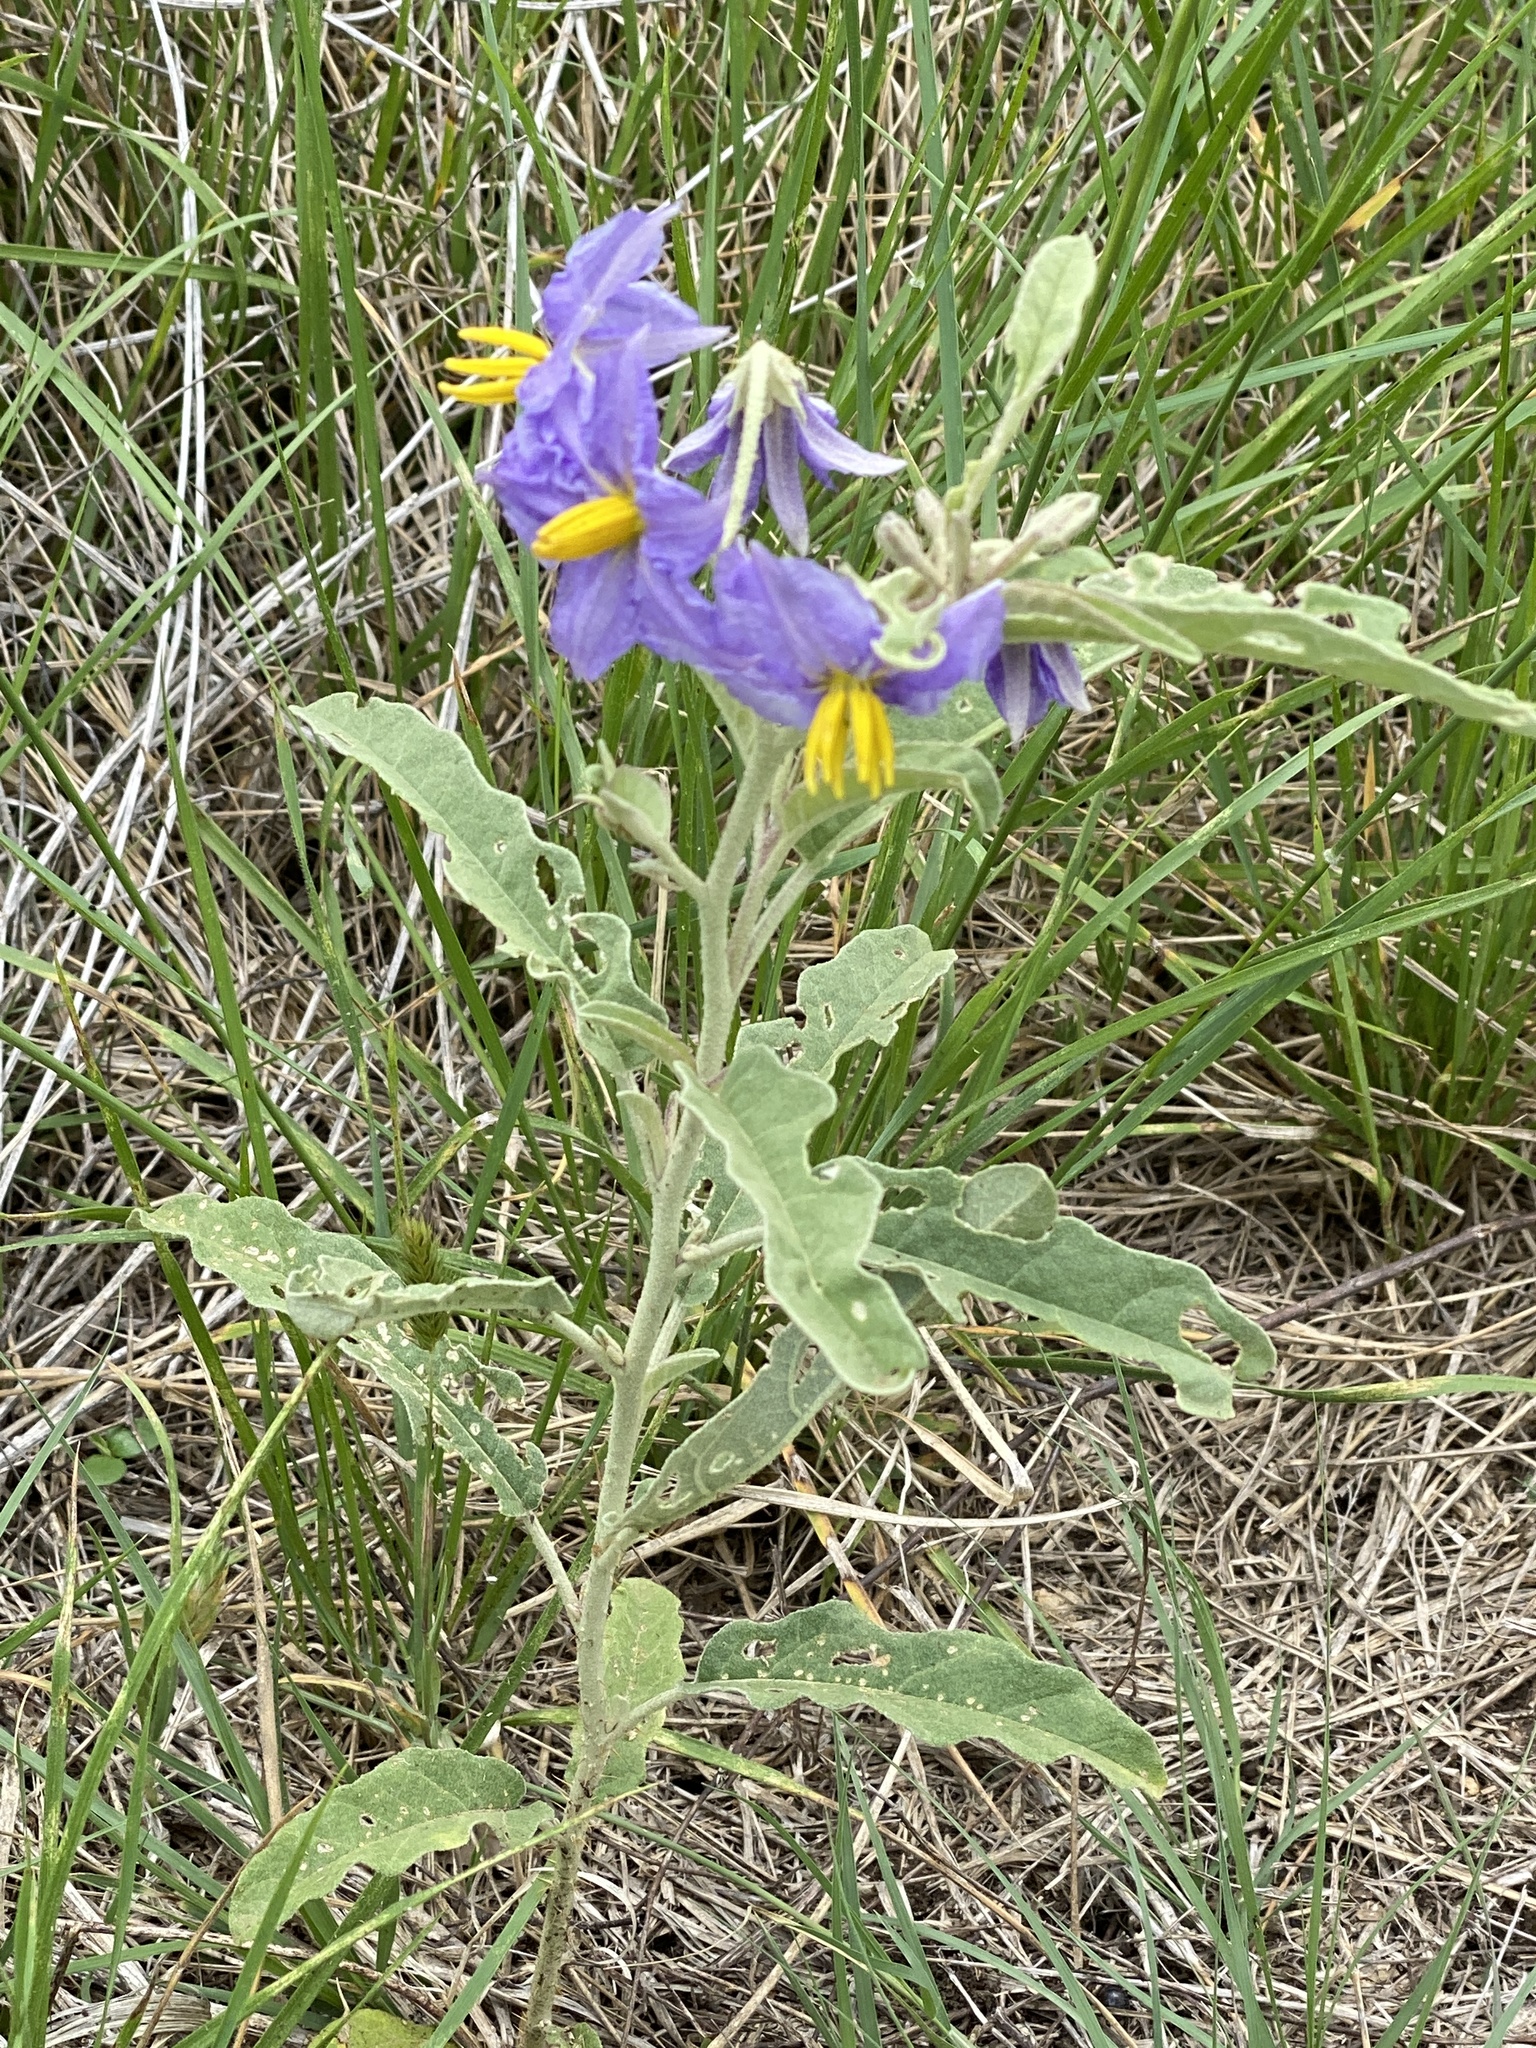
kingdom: Plantae
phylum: Tracheophyta
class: Magnoliopsida
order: Solanales
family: Solanaceae
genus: Solanum
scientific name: Solanum elaeagnifolium
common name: Silverleaf nightshade
